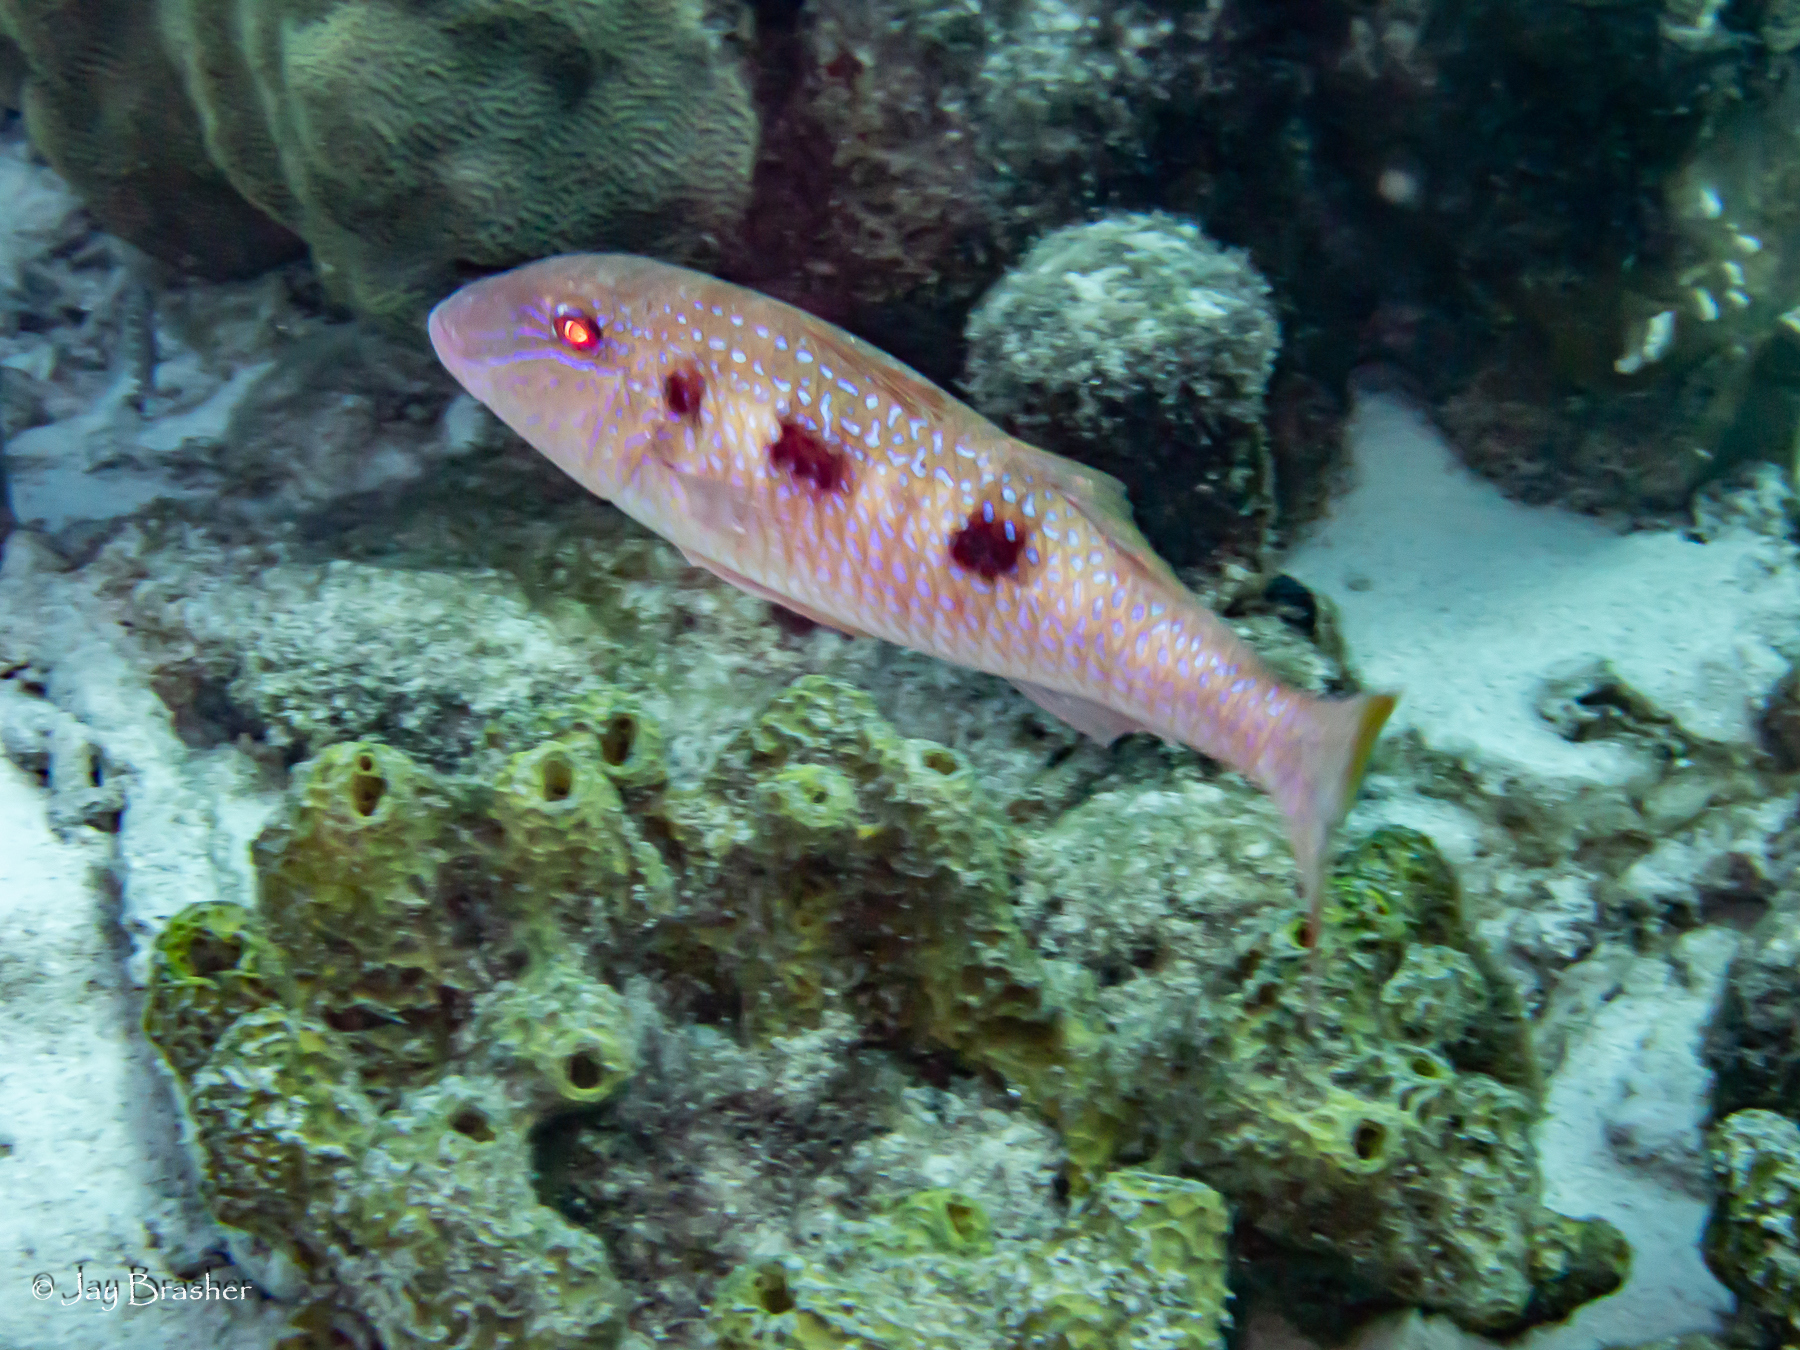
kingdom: Animalia
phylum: Chordata
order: Perciformes
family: Mullidae
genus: Pseudupeneus
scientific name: Pseudupeneus maculatus
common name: Spotted goatfish
